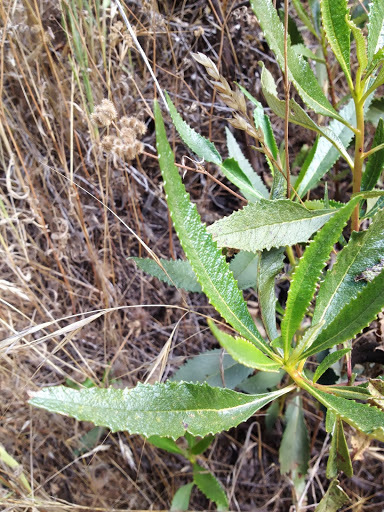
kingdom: Plantae
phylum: Tracheophyta
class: Magnoliopsida
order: Boraginales
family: Namaceae
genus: Eriodictyon
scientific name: Eriodictyon californicum
